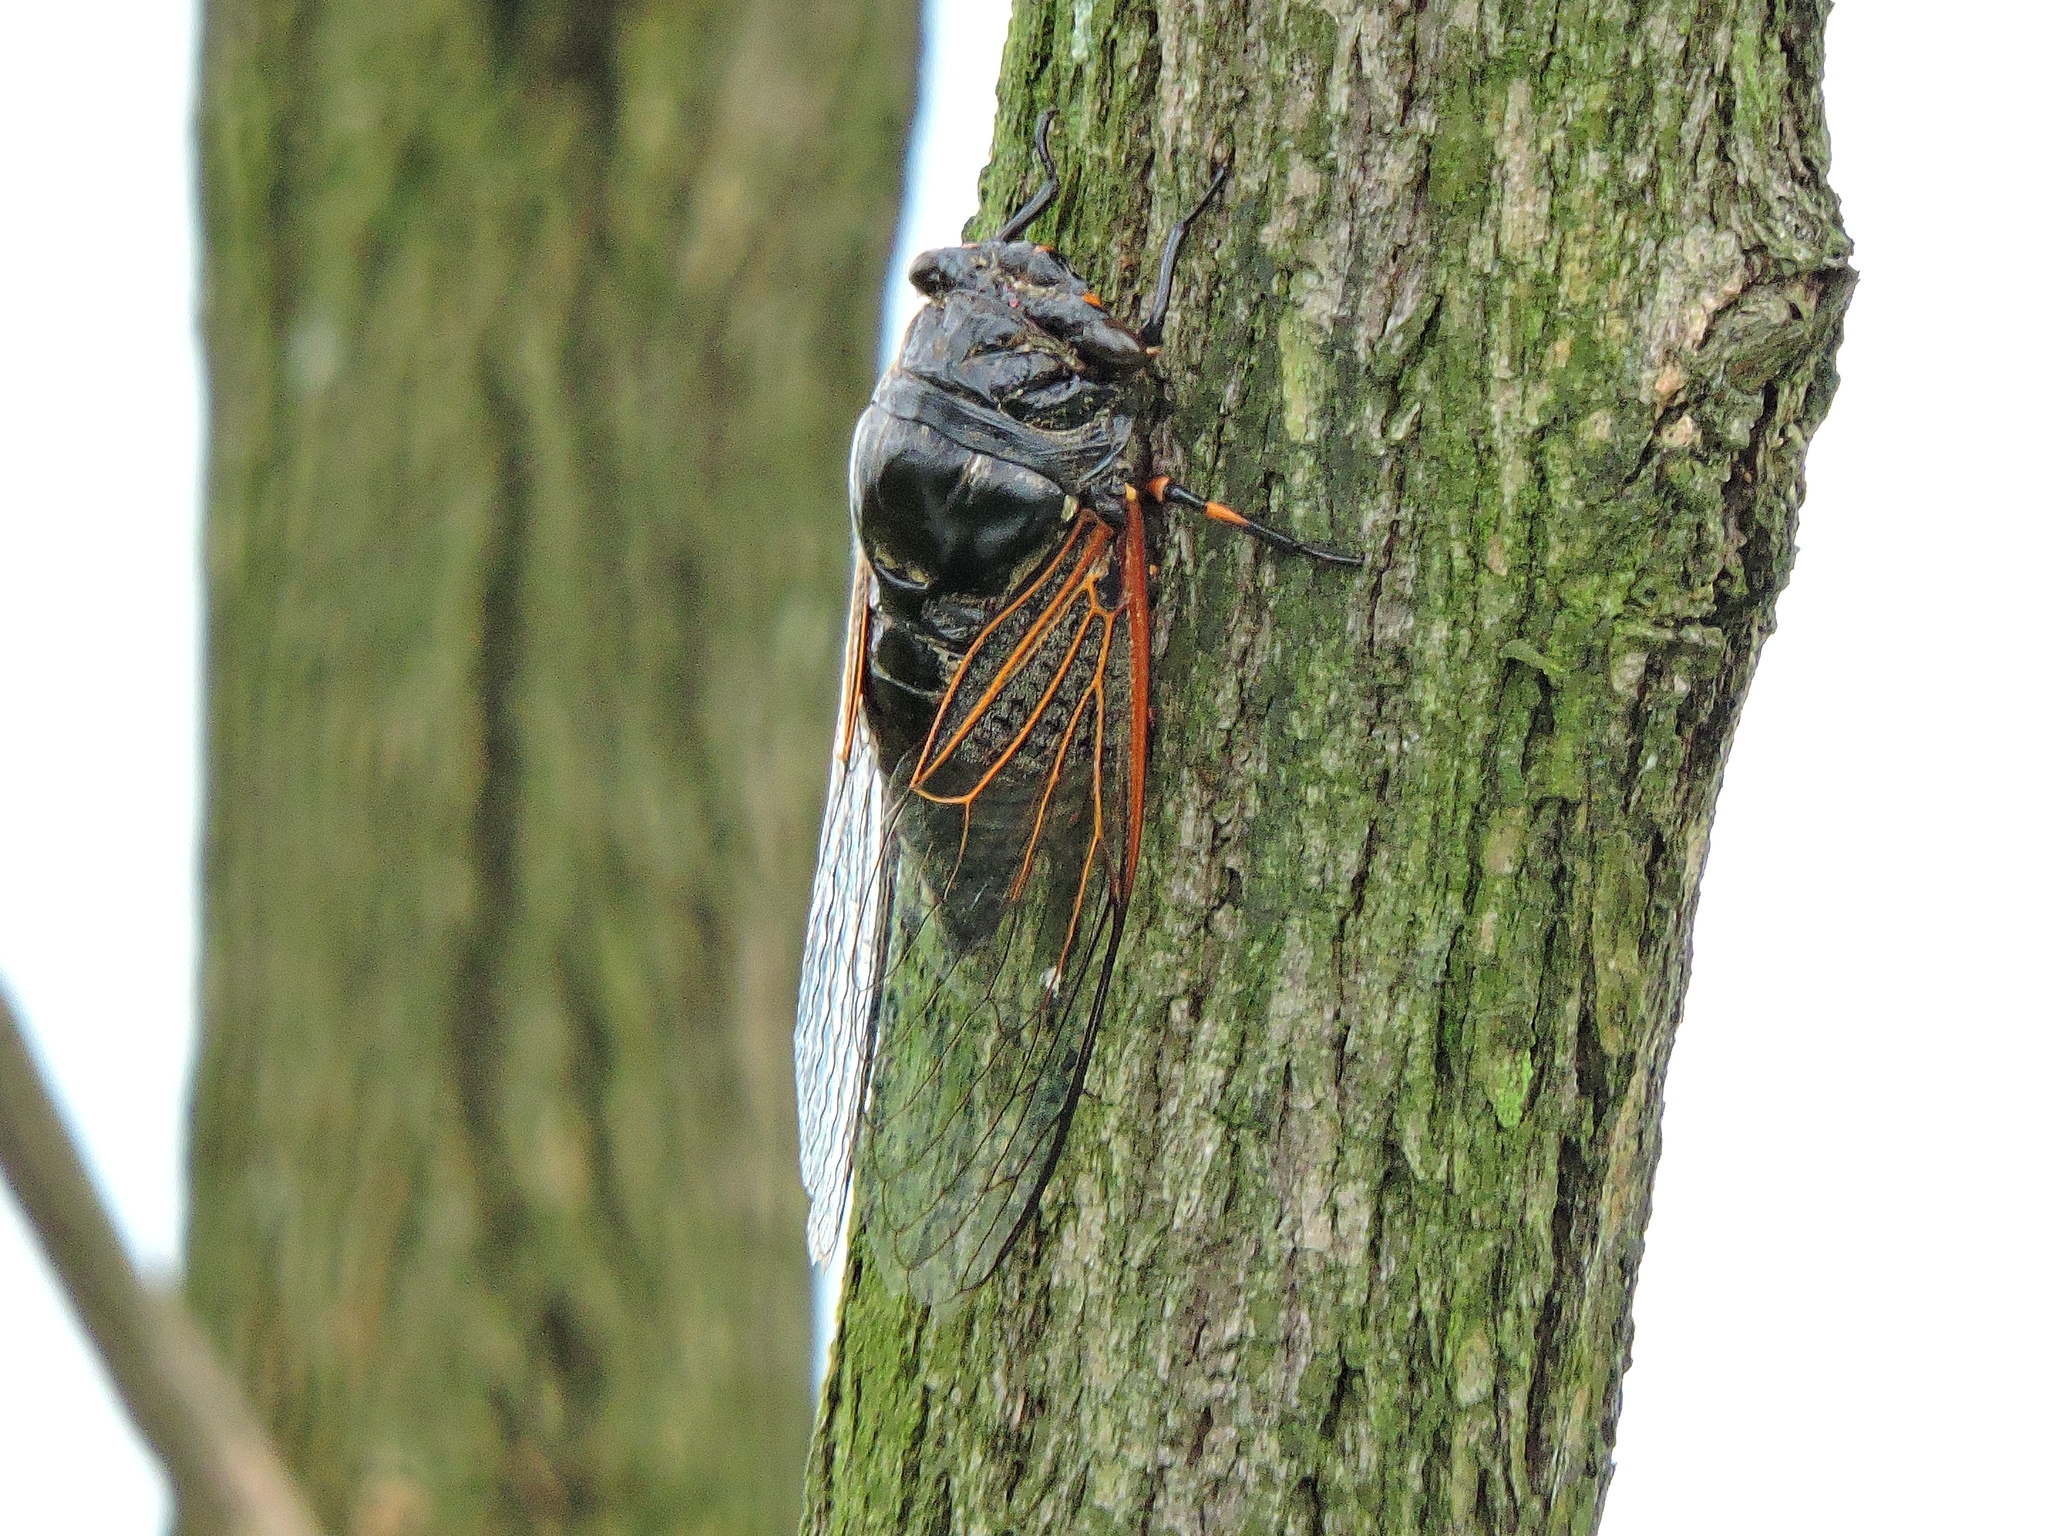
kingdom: Animalia
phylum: Arthropoda
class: Insecta
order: Hemiptera
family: Cicadidae
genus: Cryptotympana
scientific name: Cryptotympana atrata
